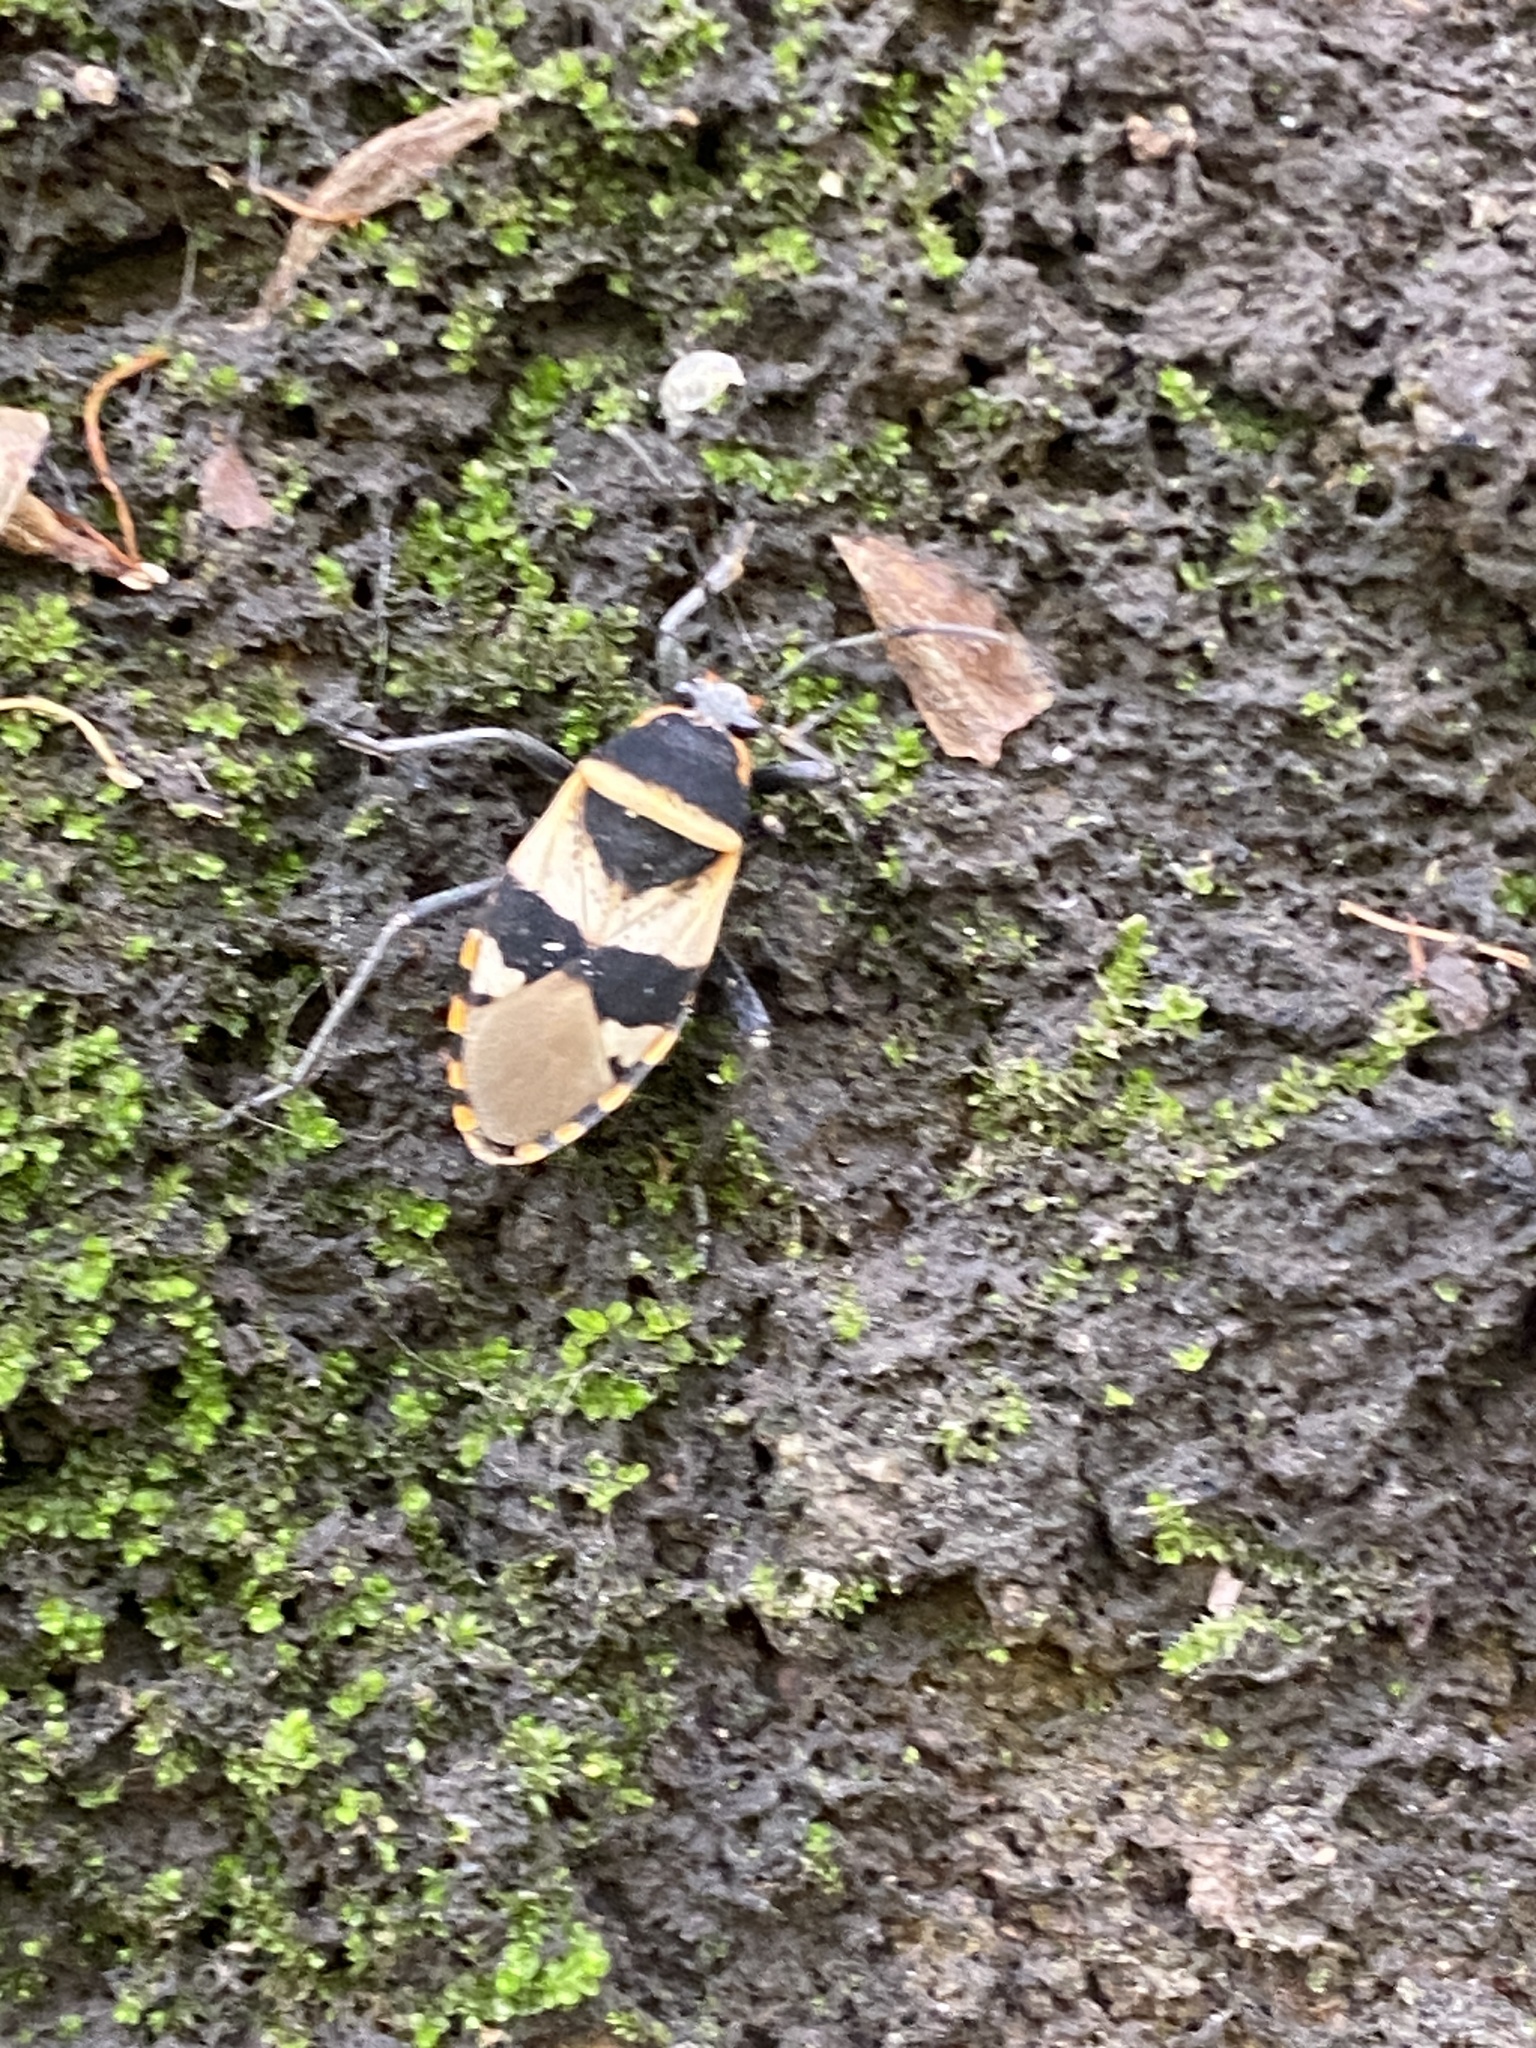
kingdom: Animalia
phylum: Arthropoda
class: Insecta
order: Hemiptera
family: Largidae
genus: Largus
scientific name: Largus fasciatus
